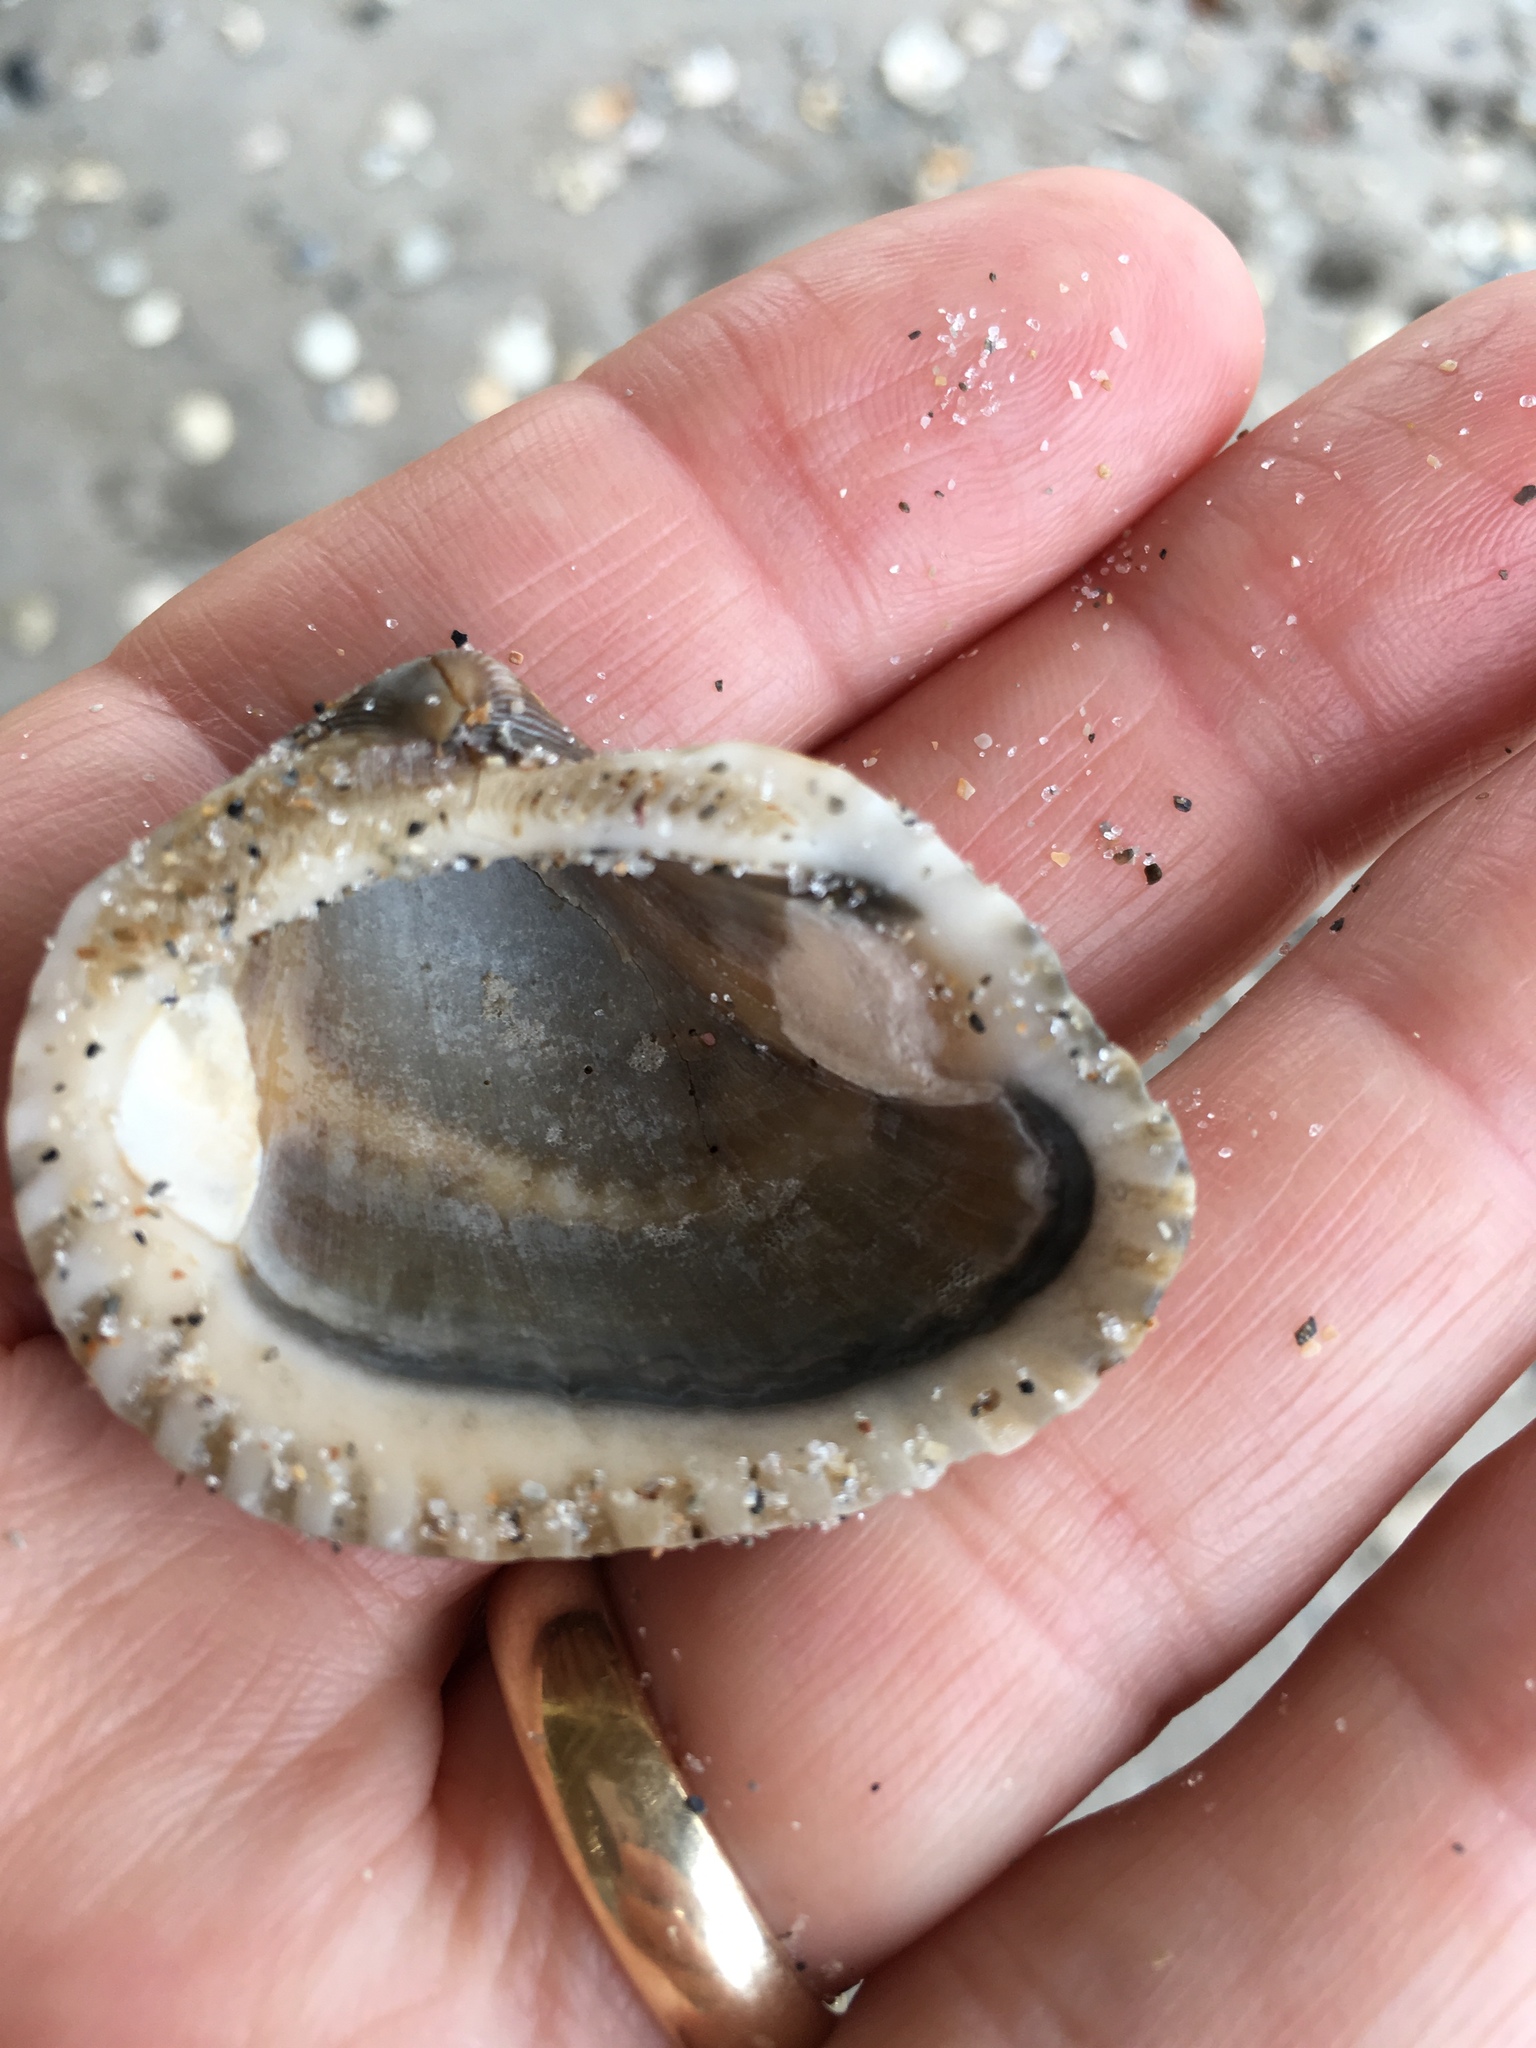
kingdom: Animalia
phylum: Mollusca
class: Bivalvia
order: Arcida
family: Noetiidae
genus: Noetia
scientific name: Noetia ponderosa
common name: Ponderous ark
